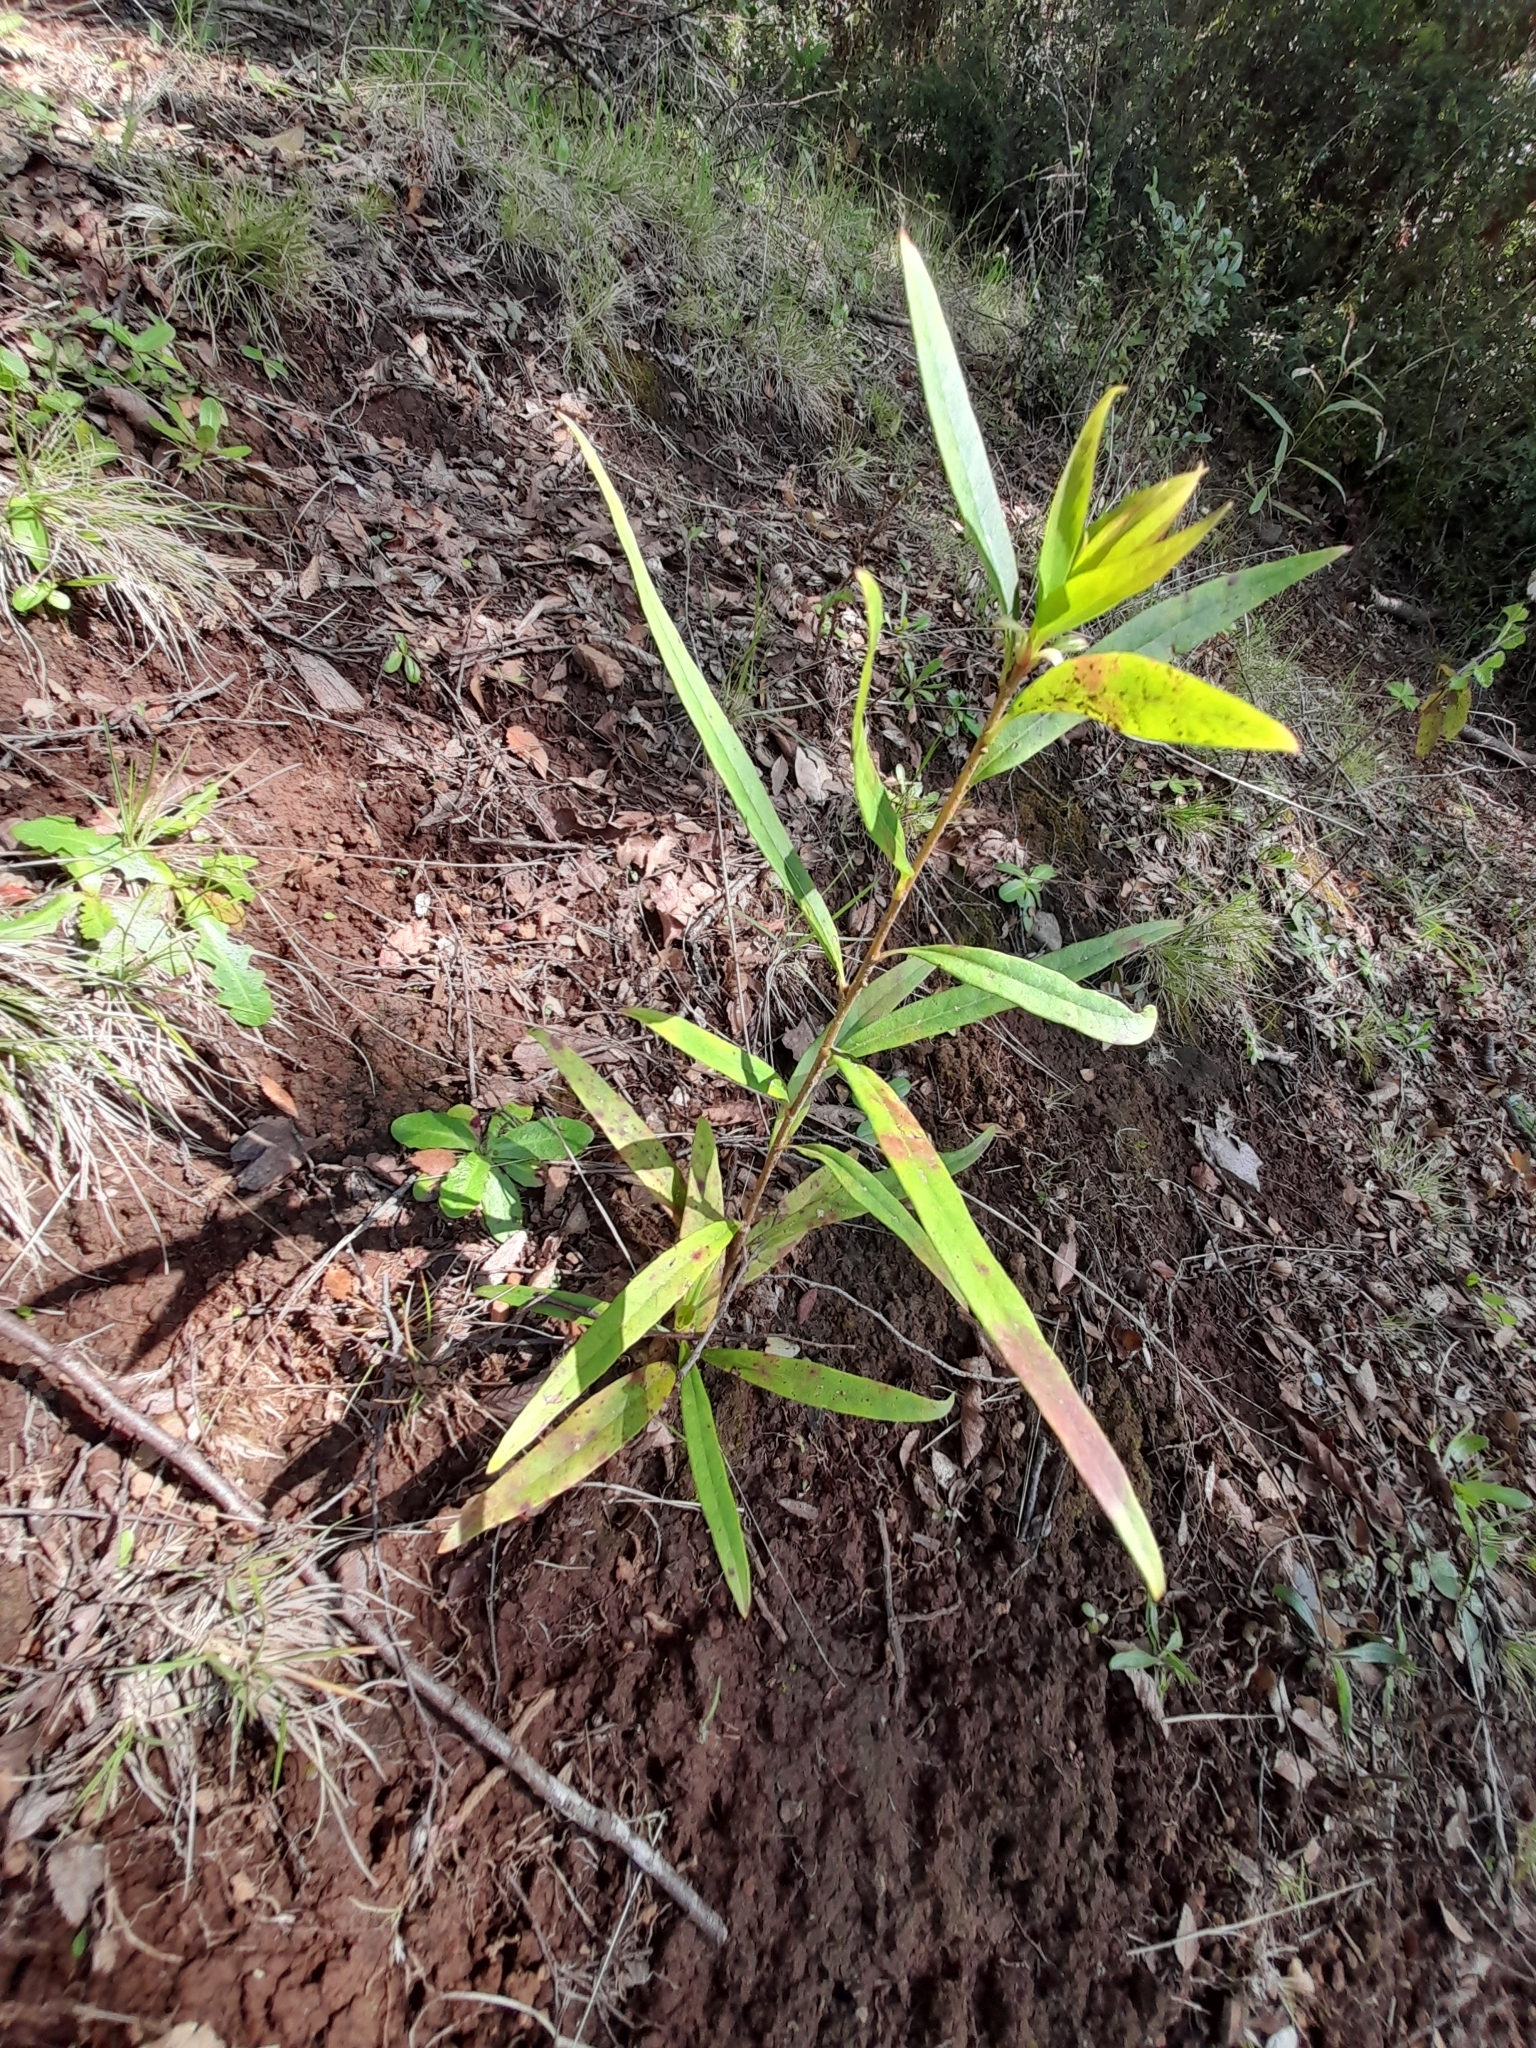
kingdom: Plantae
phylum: Tracheophyta
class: Magnoliopsida
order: Proteales
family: Proteaceae
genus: Embothrium
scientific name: Embothrium coccineum
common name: Chilean firebush
